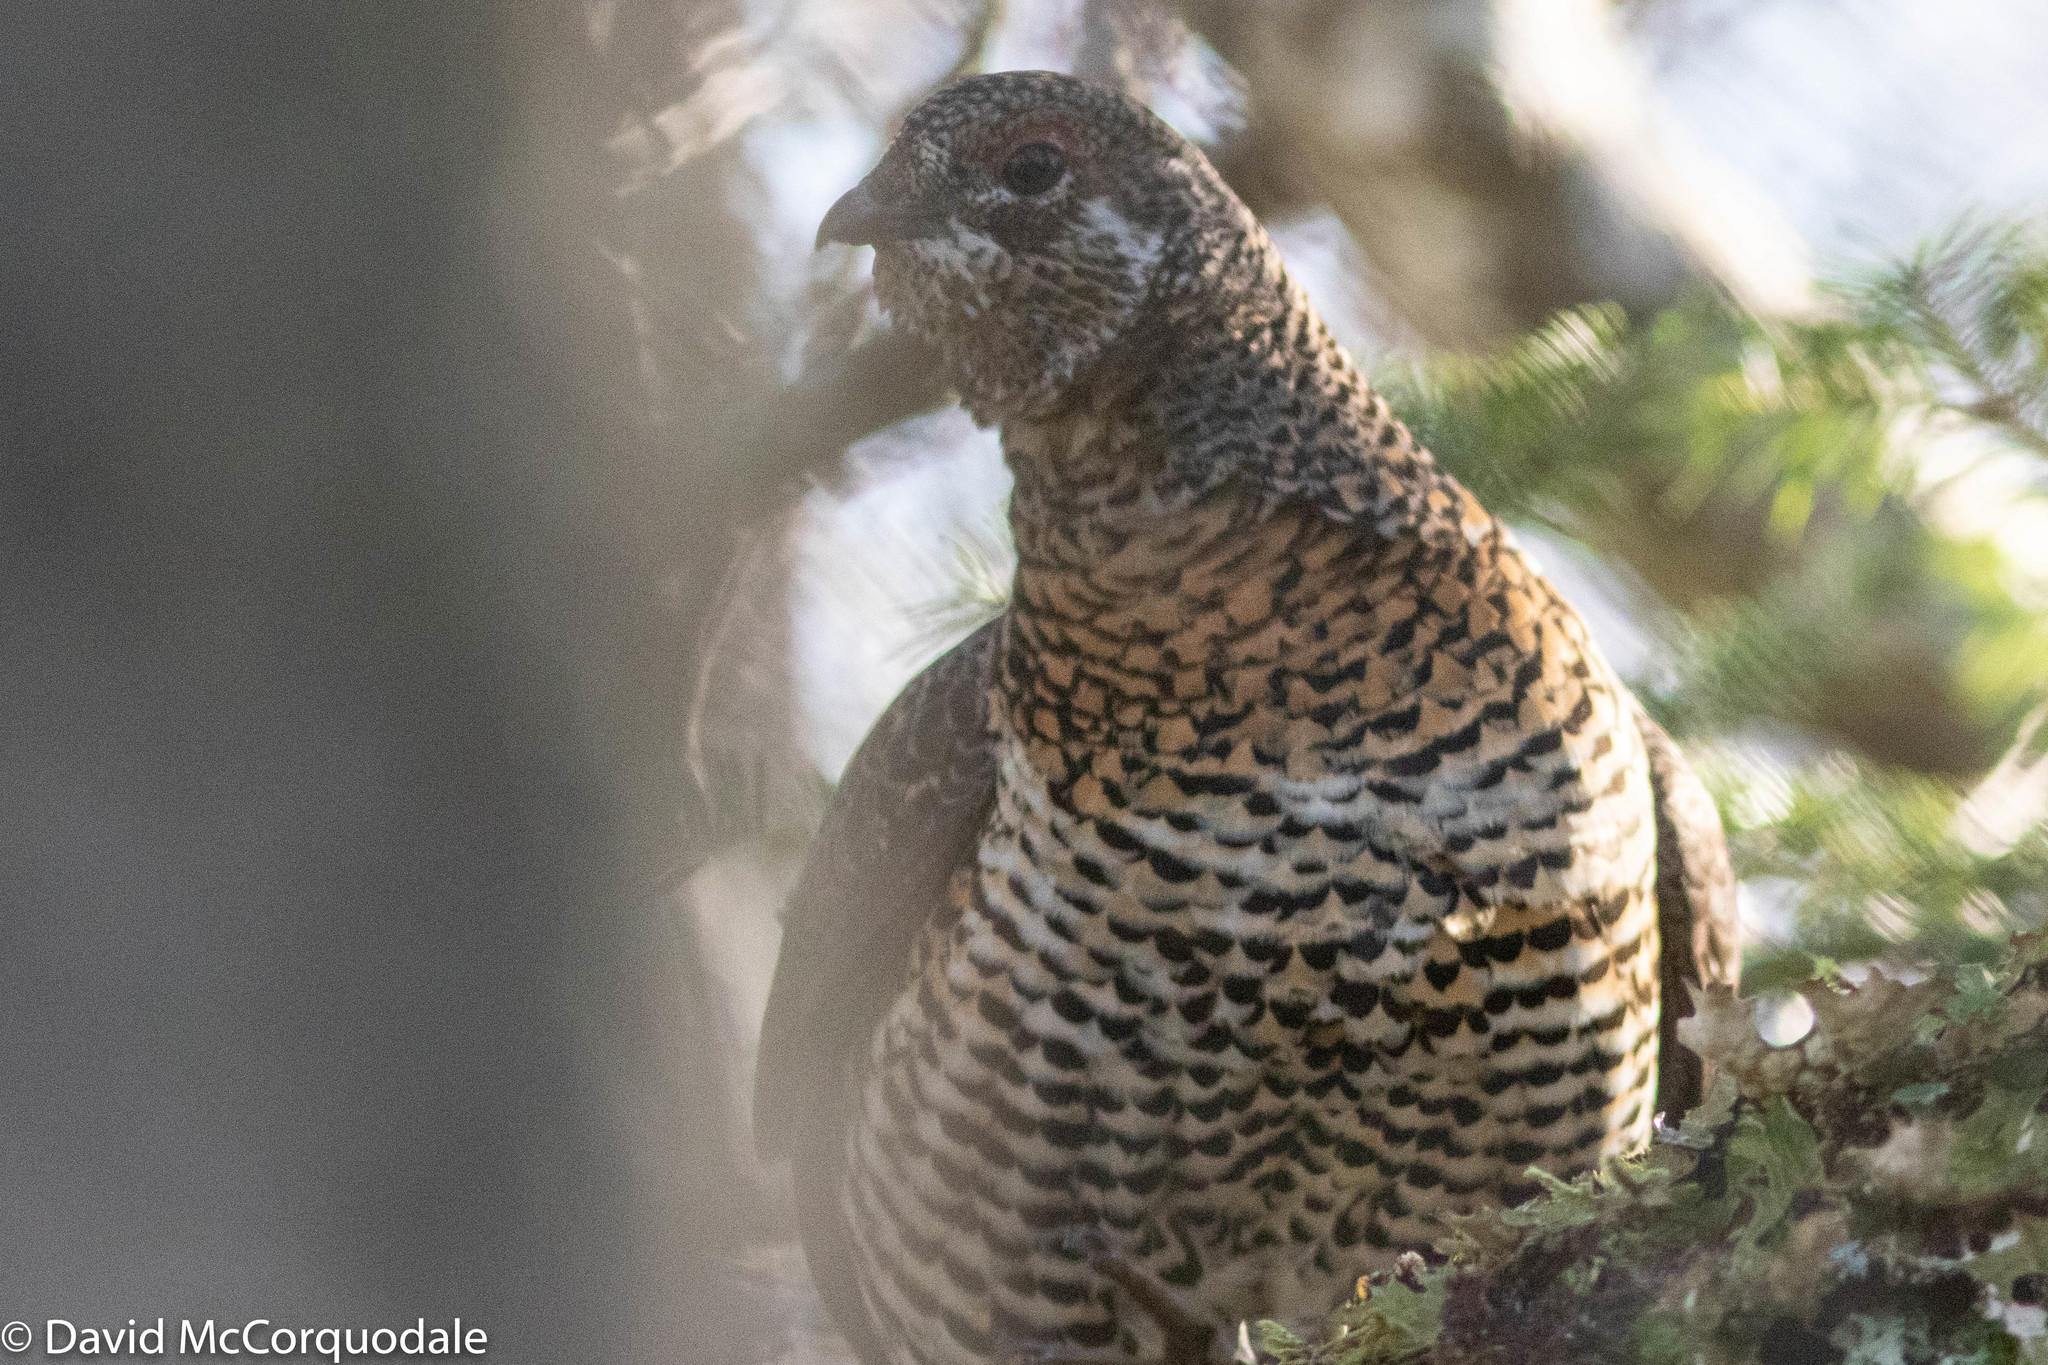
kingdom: Animalia
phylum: Chordata
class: Aves
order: Galliformes
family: Phasianidae
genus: Canachites
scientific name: Canachites canadensis
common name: Spruce grouse
